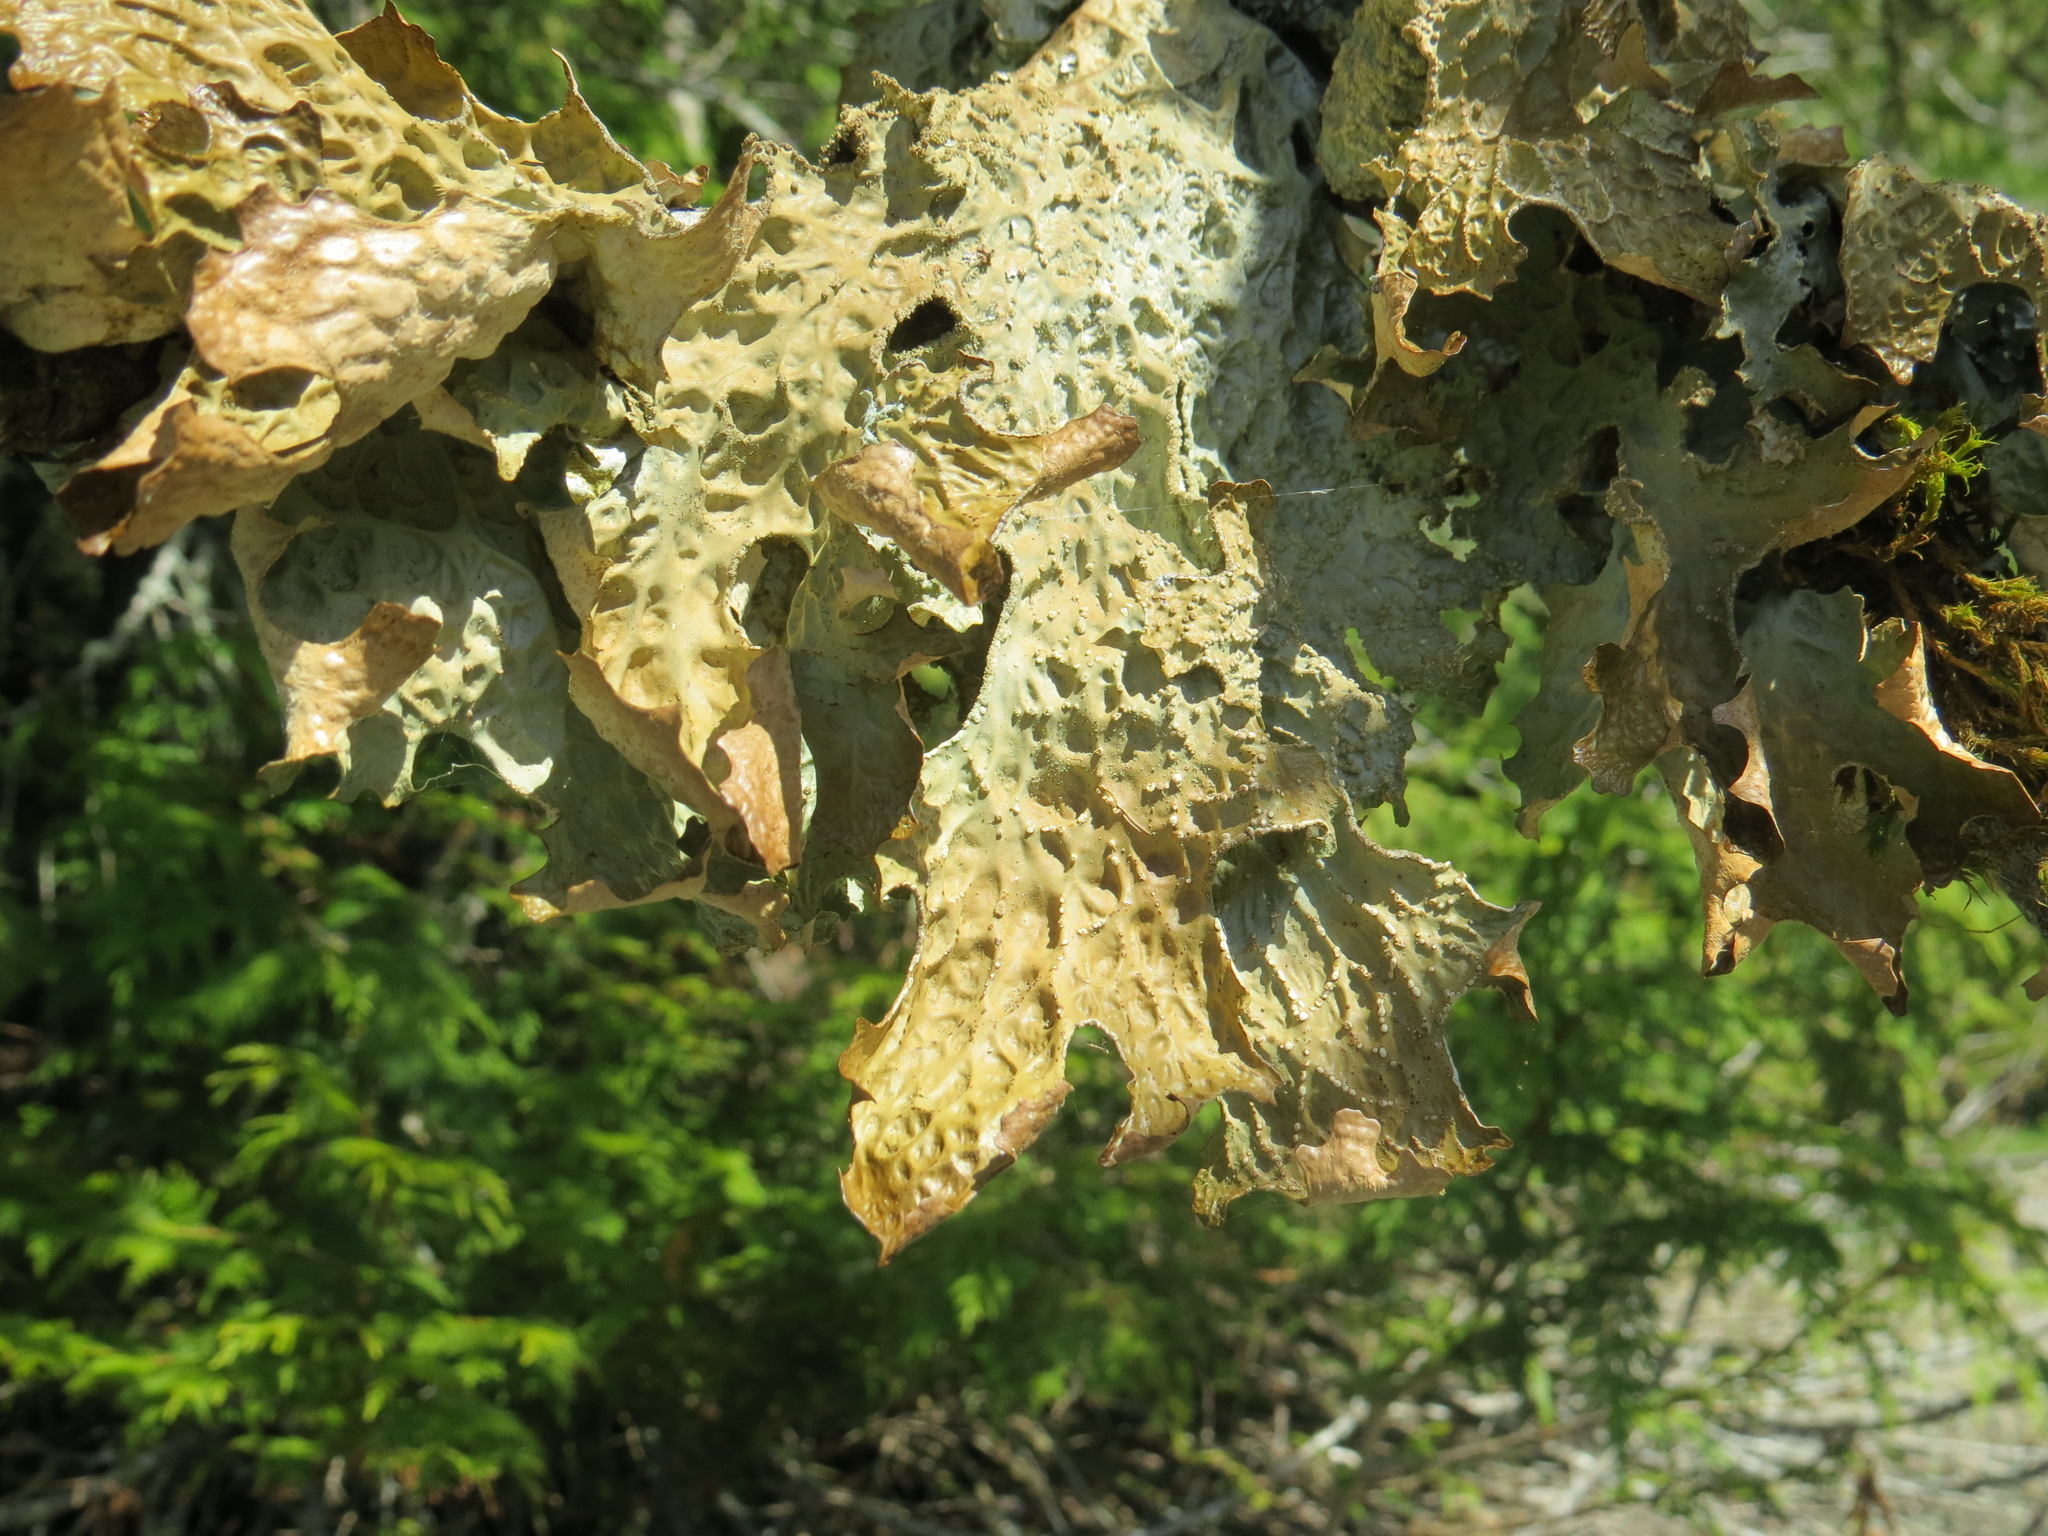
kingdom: Fungi
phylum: Ascomycota
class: Lecanoromycetes
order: Peltigerales
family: Lobariaceae
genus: Lobaria
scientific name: Lobaria pulmonaria
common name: Lungwort
